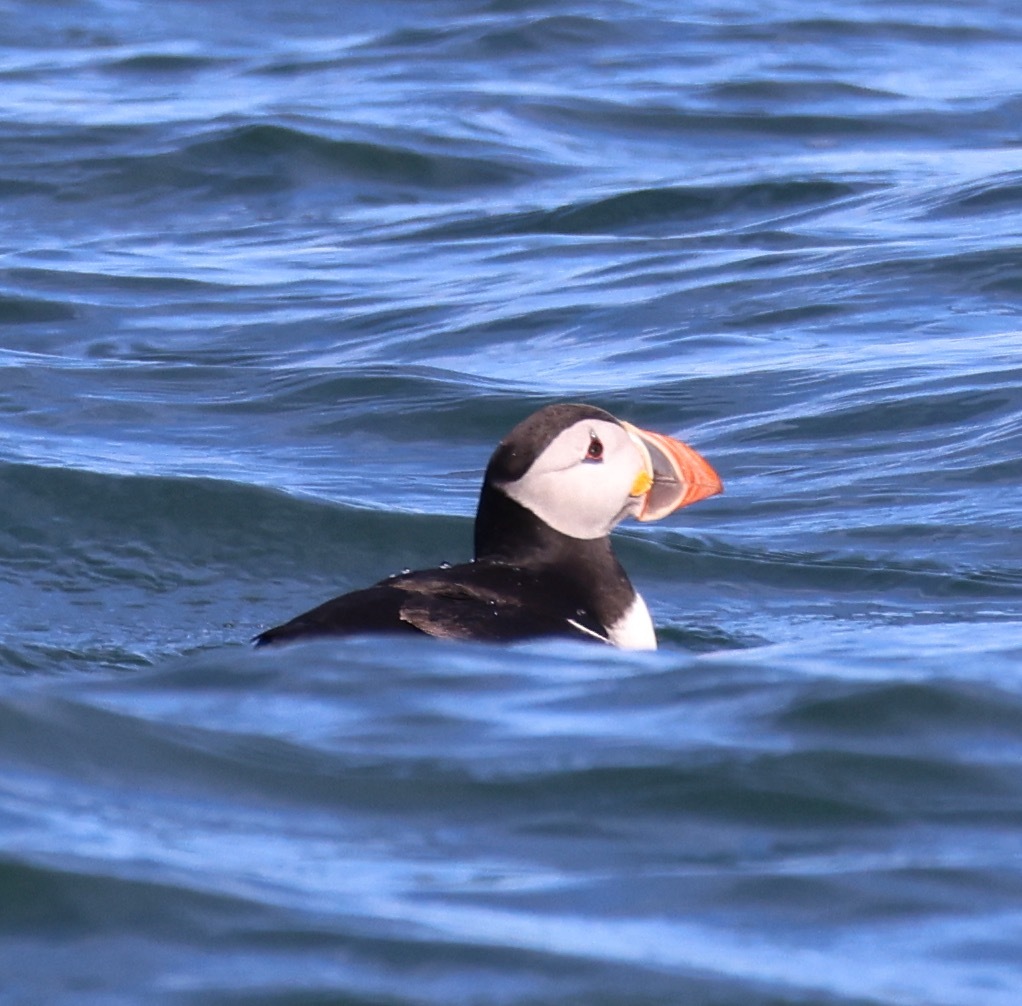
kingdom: Animalia
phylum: Chordata
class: Aves
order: Charadriiformes
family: Alcidae
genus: Fratercula
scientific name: Fratercula arctica
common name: Atlantic puffin
